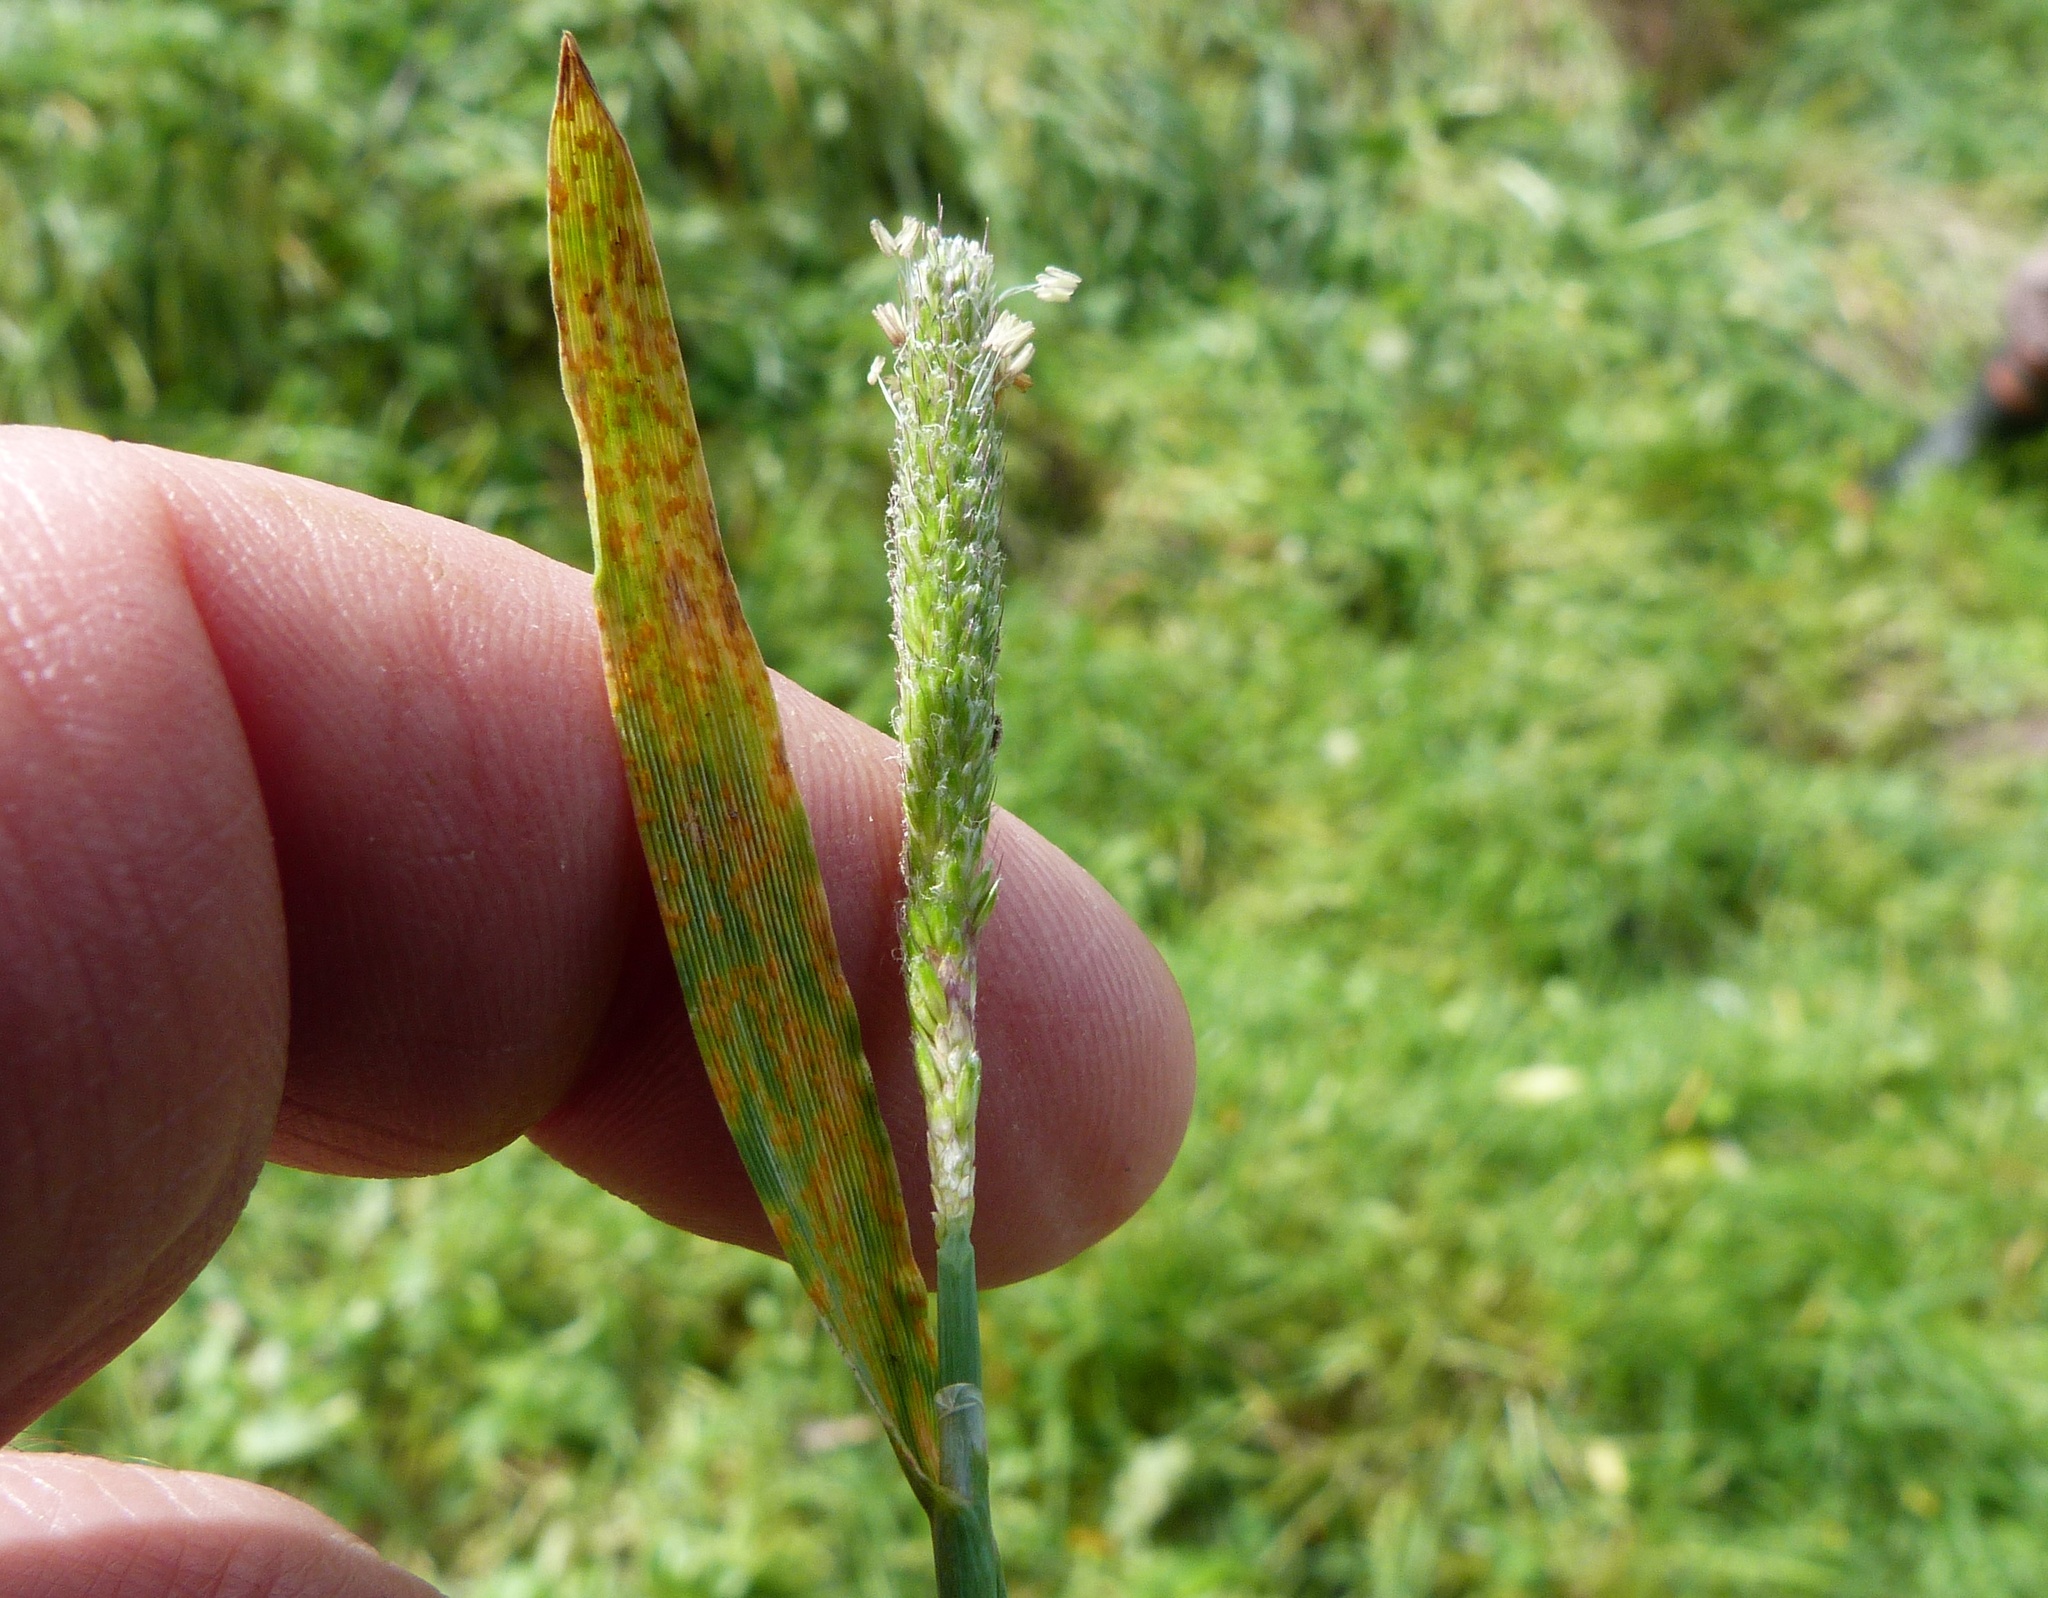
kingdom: Plantae
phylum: Tracheophyta
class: Liliopsida
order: Poales
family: Poaceae
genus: Alopecurus
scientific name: Alopecurus geniculatus
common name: Water foxtail
